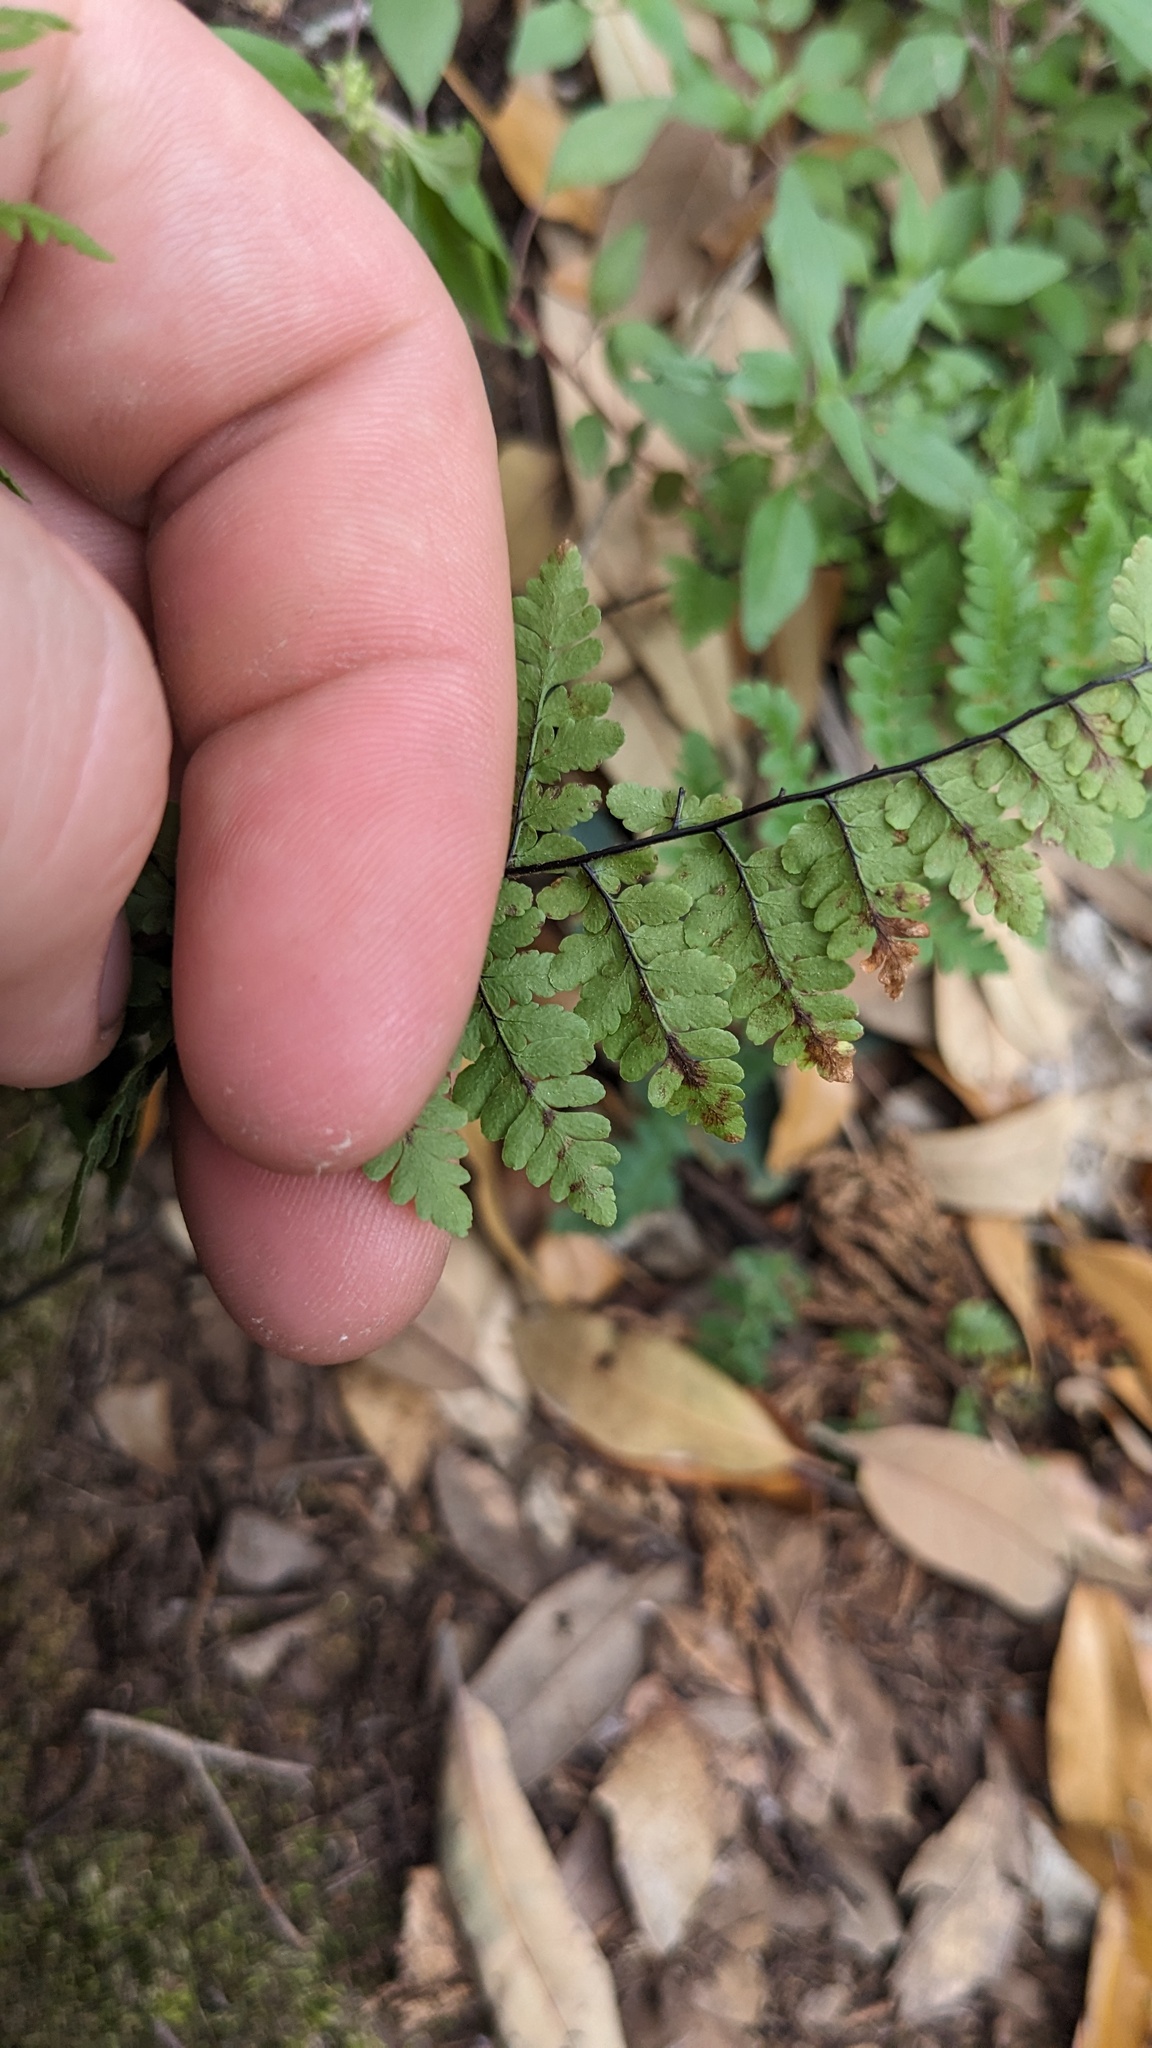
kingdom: Plantae
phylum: Tracheophyta
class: Polypodiopsida
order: Polypodiales
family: Pteridaceae
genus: Myriopteris
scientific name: Myriopteris alabamensis
